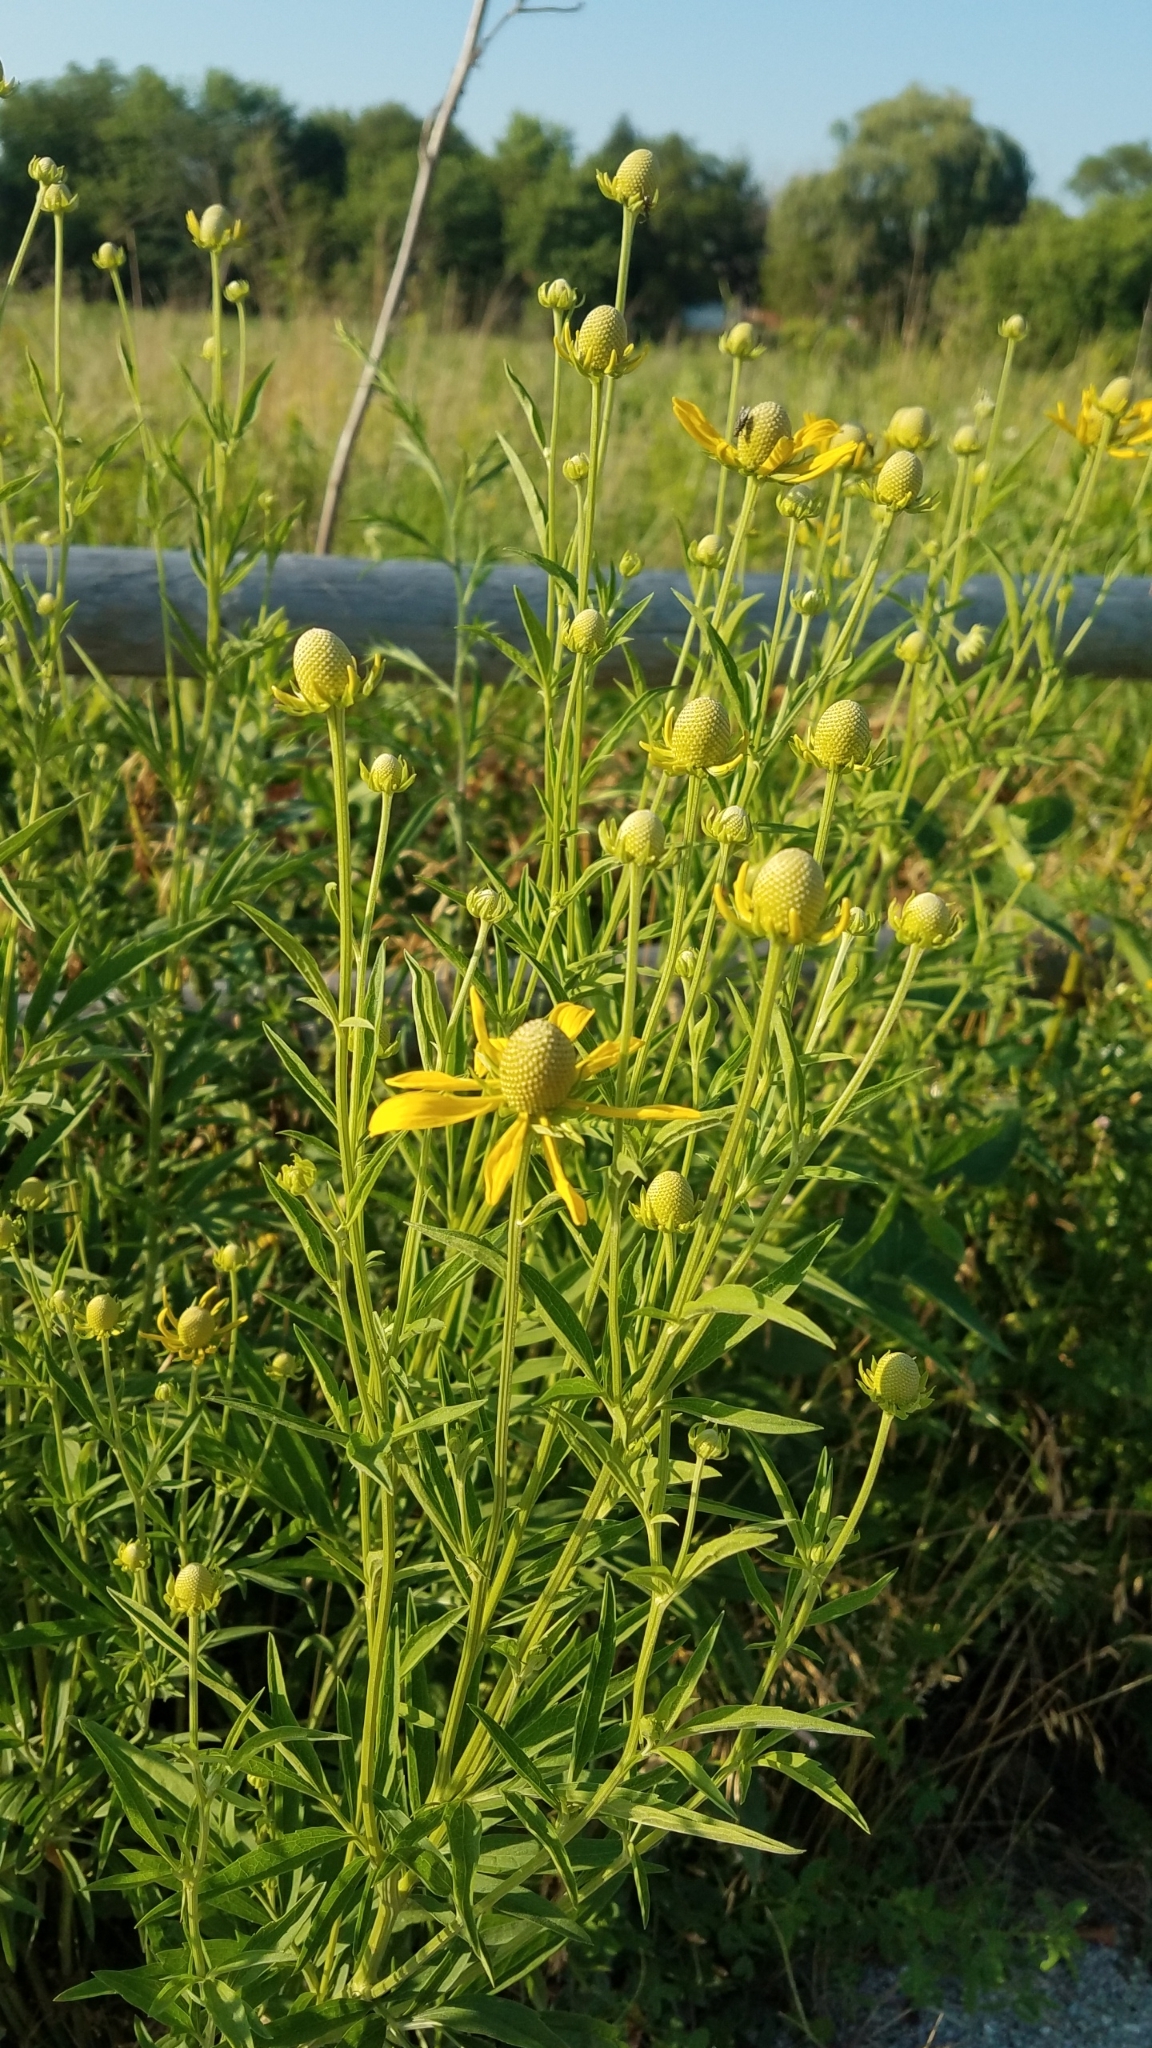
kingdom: Plantae
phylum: Tracheophyta
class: Magnoliopsida
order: Asterales
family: Asteraceae
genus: Ratibida
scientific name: Ratibida pinnata
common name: Drooping prairie-coneflower
